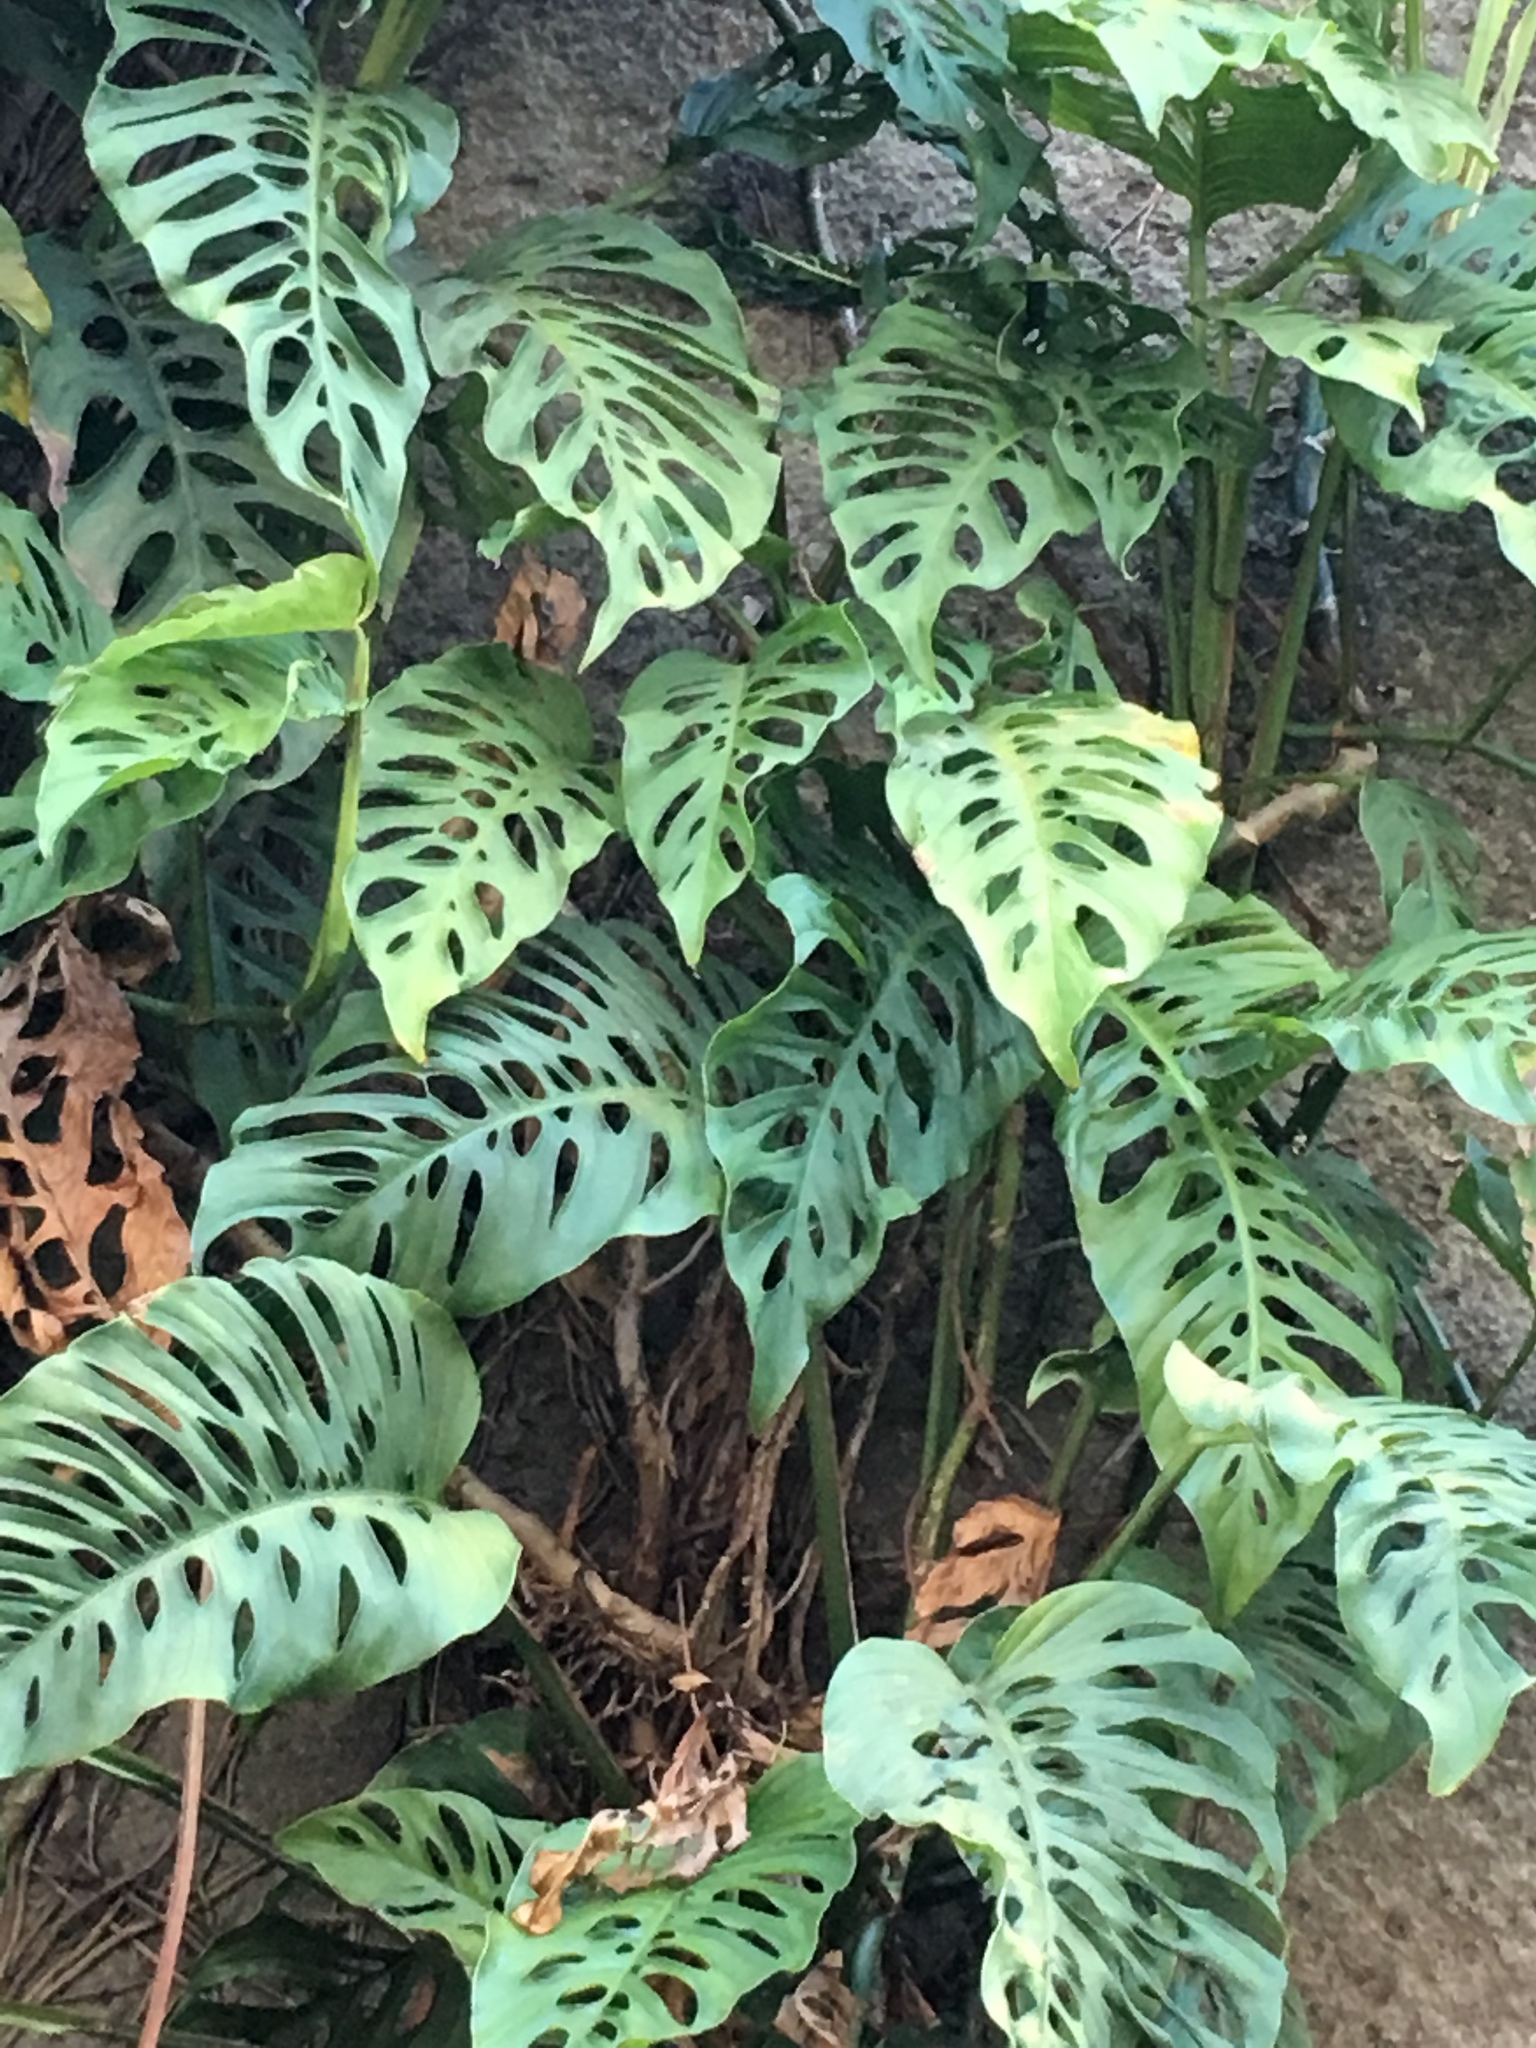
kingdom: Plantae
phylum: Tracheophyta
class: Liliopsida
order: Alismatales
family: Araceae
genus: Monstera
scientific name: Monstera adansonii
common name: Tarovine
